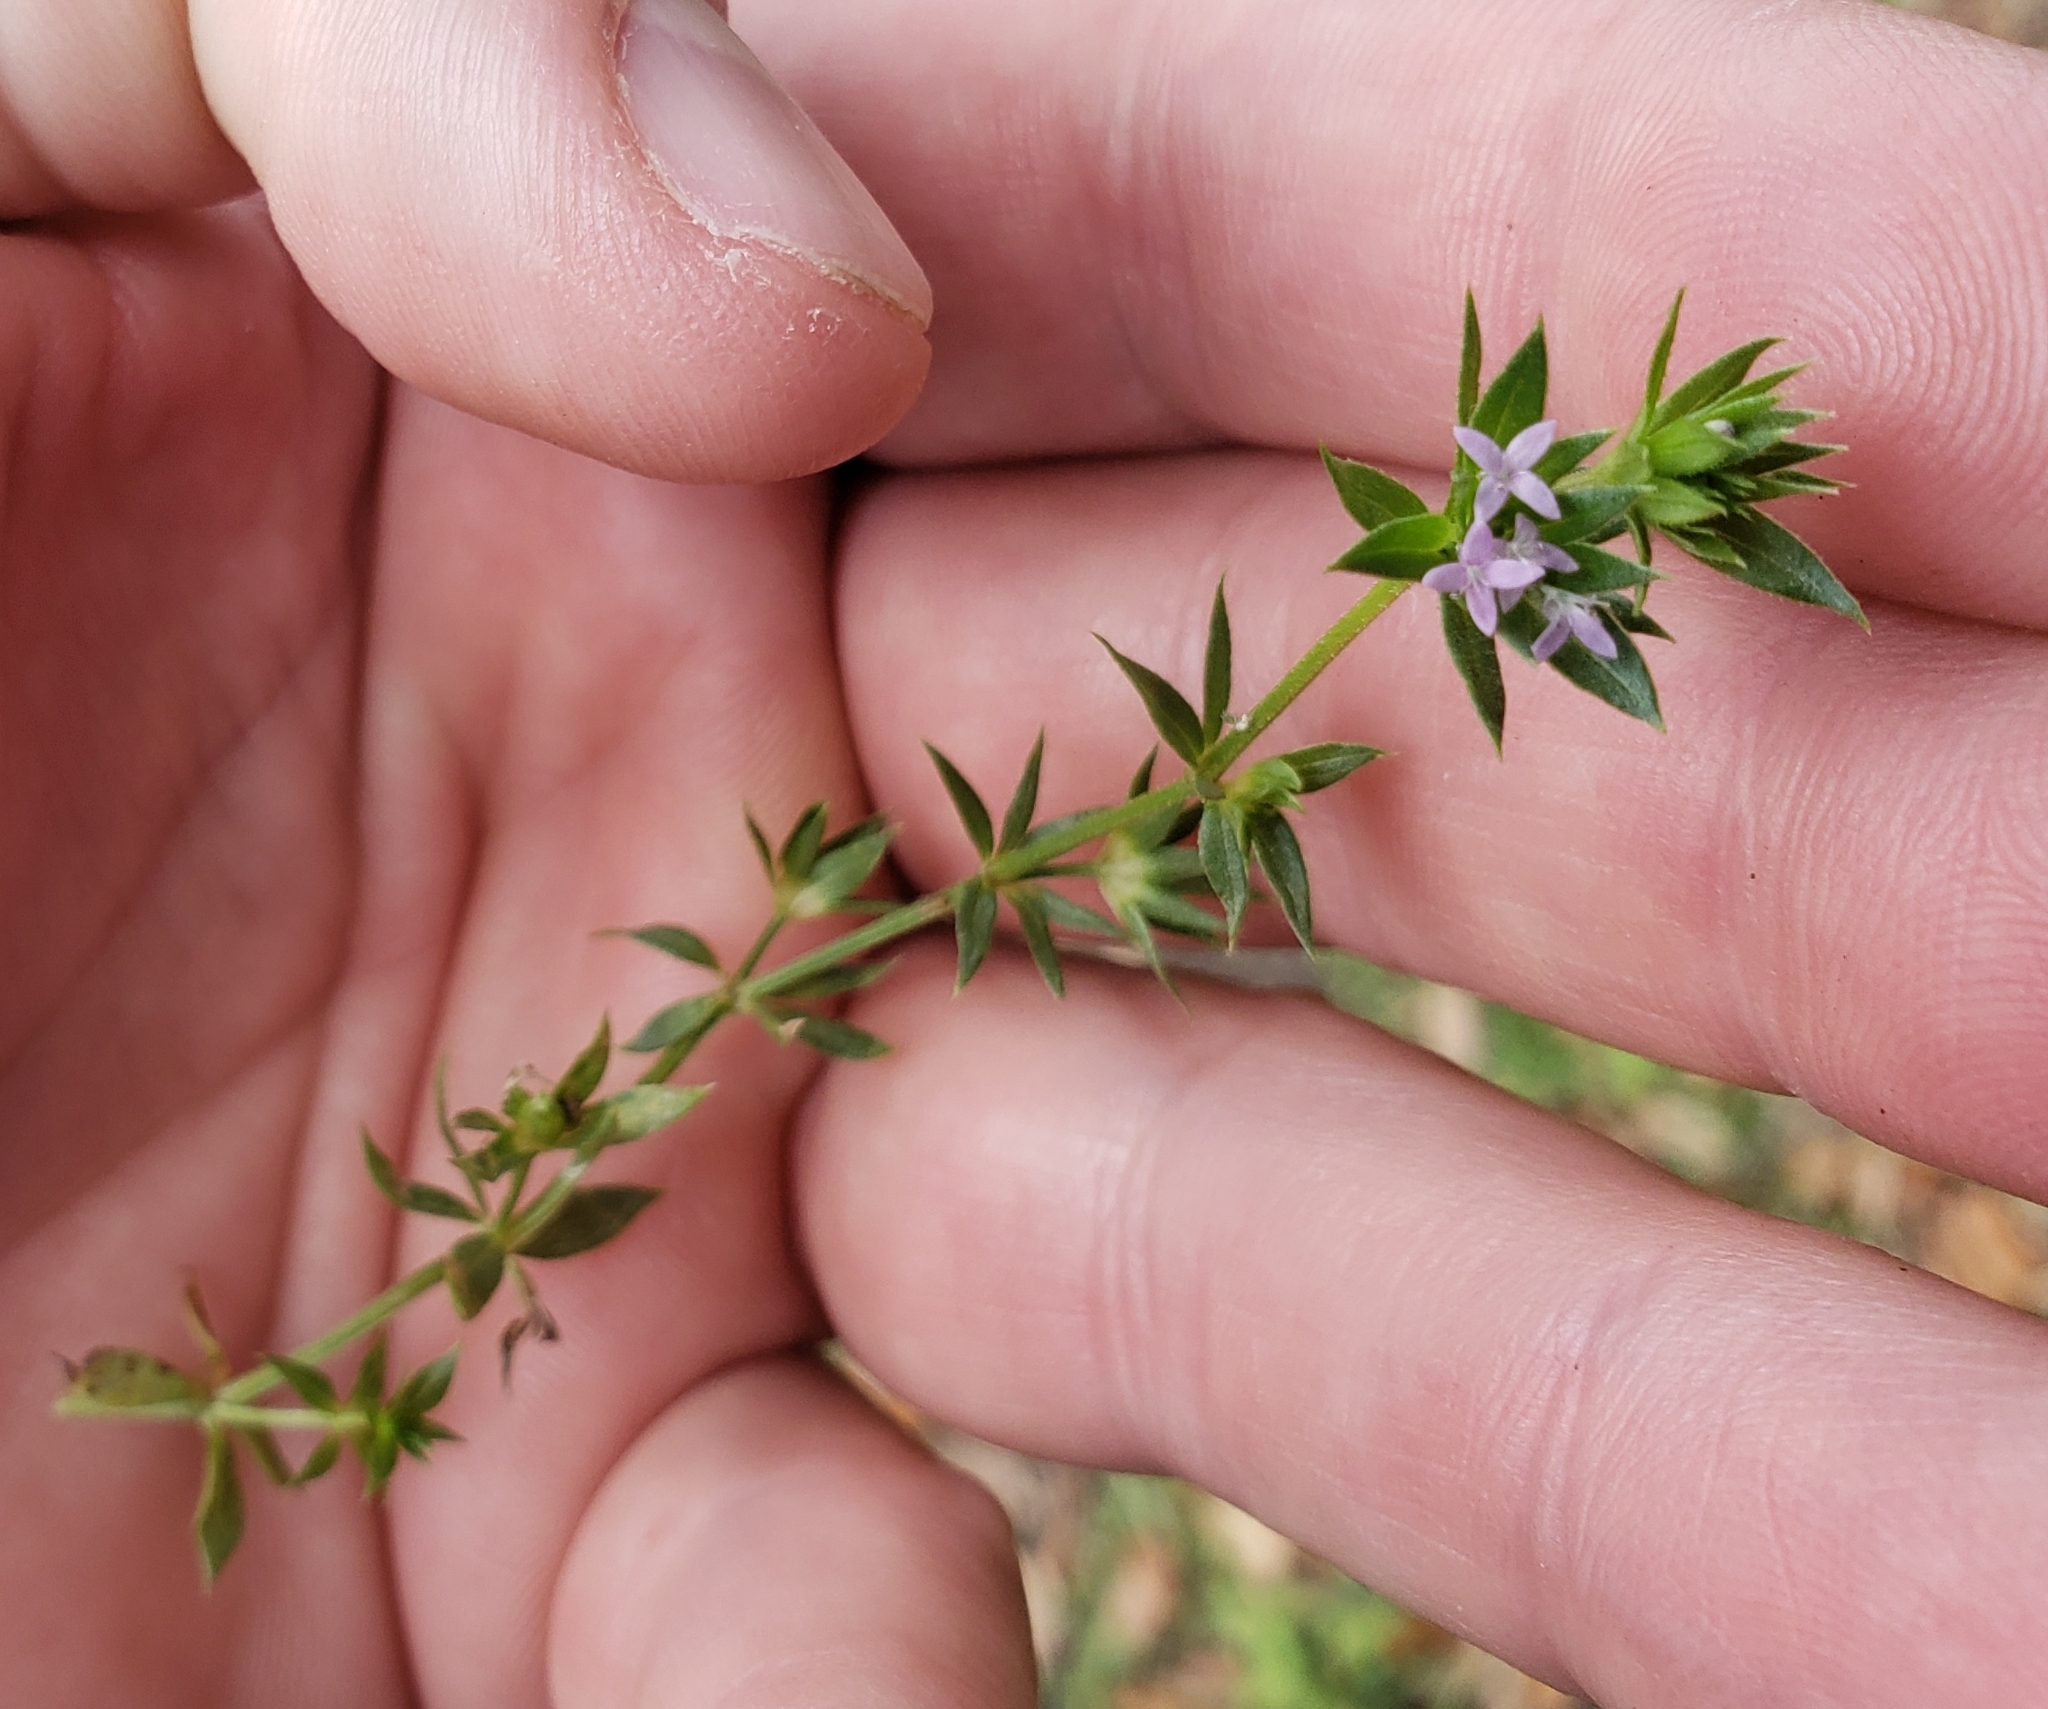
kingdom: Plantae
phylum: Tracheophyta
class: Magnoliopsida
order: Gentianales
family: Rubiaceae
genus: Sherardia
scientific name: Sherardia arvensis
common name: Field madder
